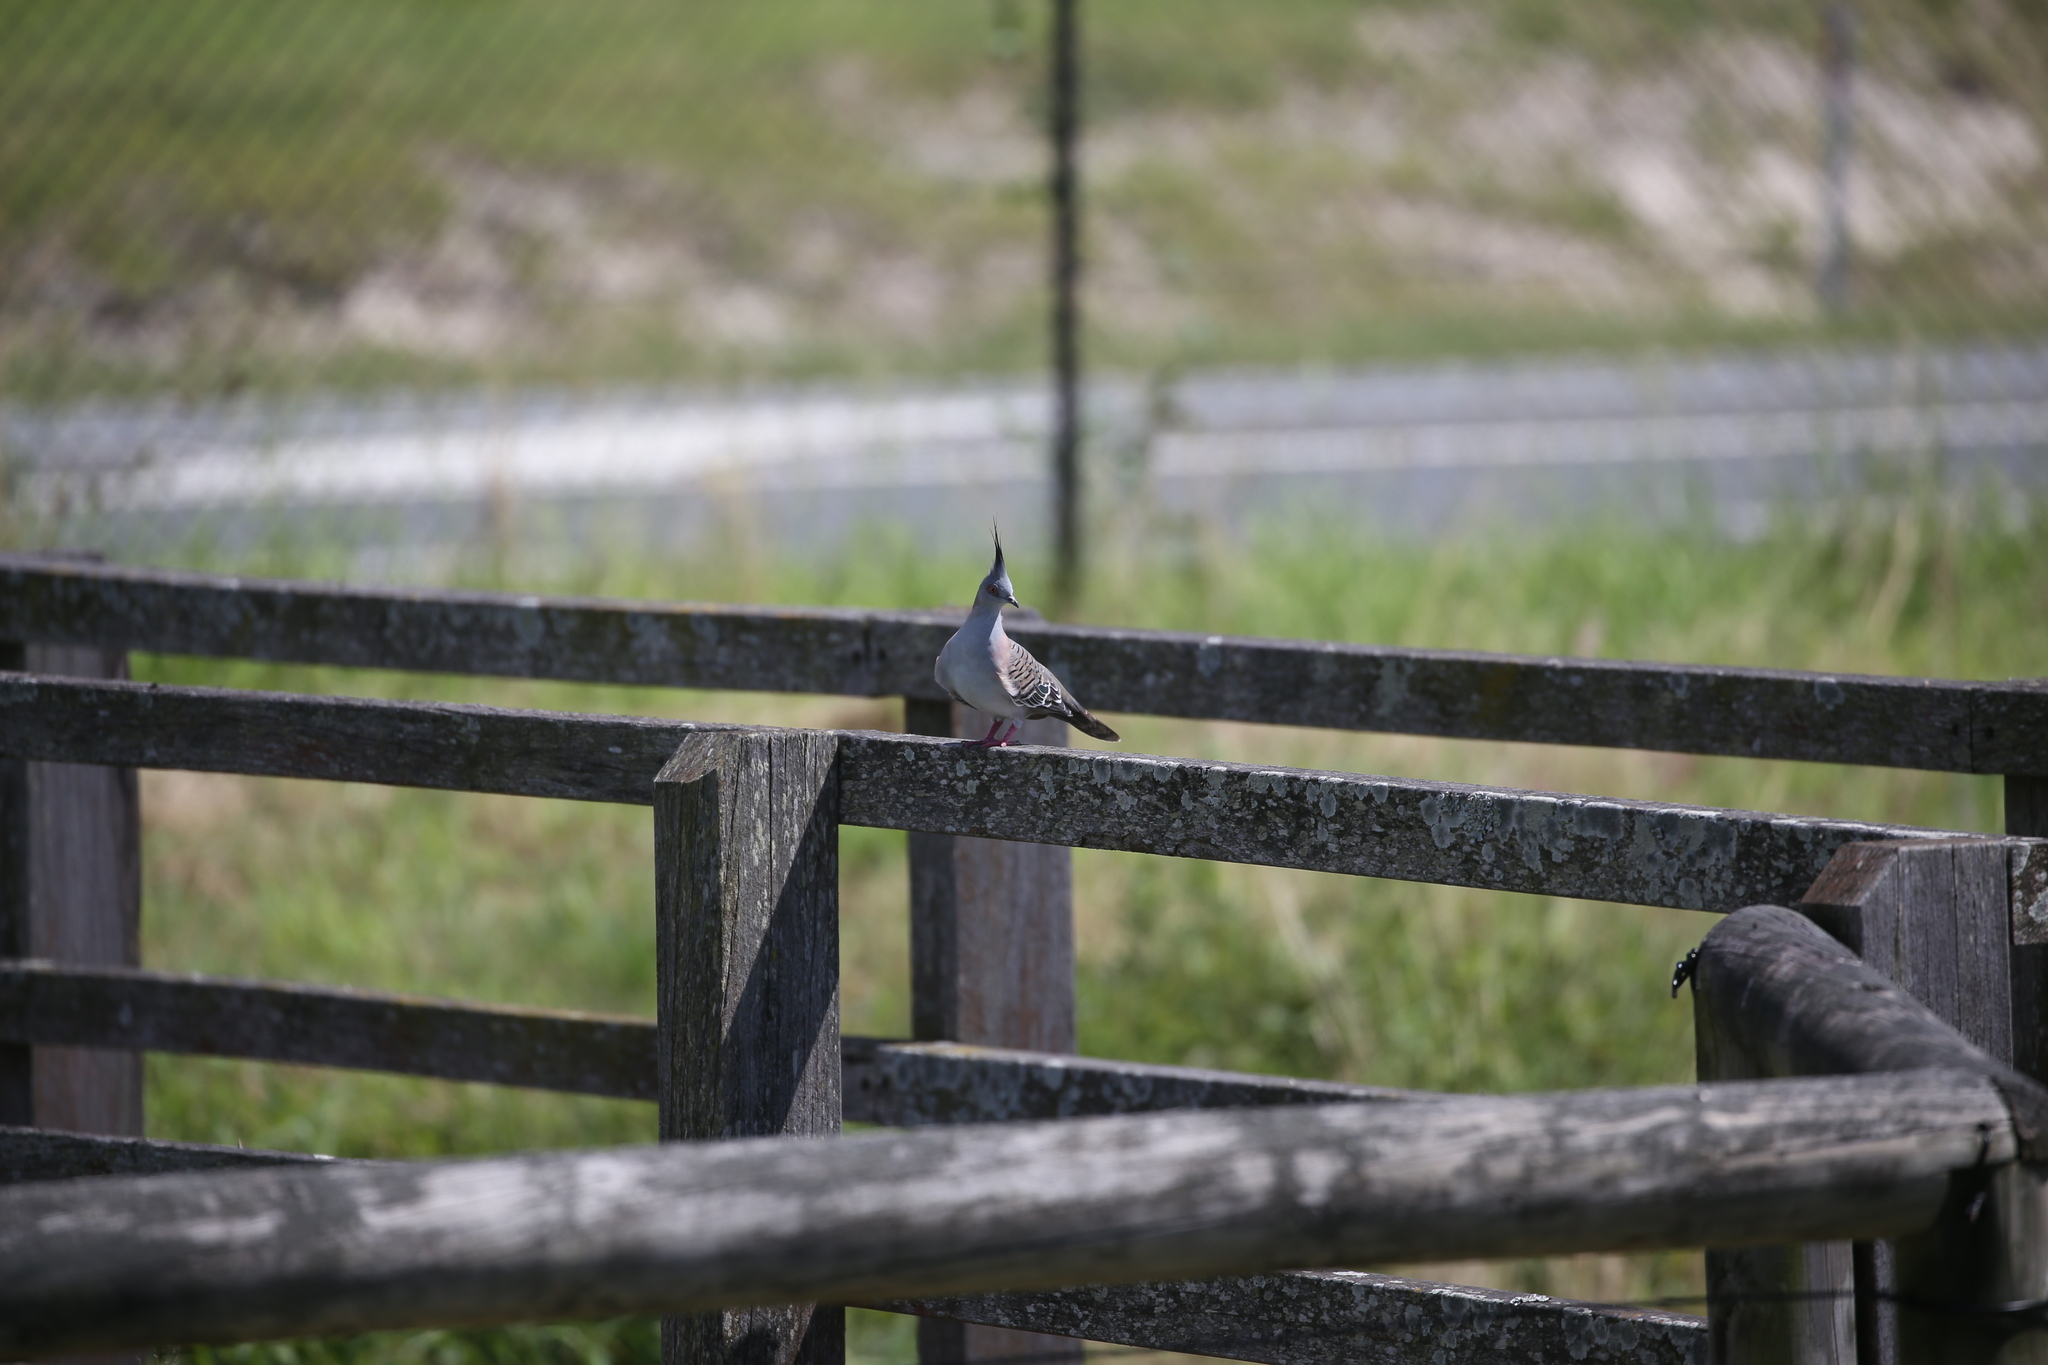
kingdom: Animalia
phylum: Chordata
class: Aves
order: Columbiformes
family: Columbidae
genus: Ocyphaps
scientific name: Ocyphaps lophotes
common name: Crested pigeon
